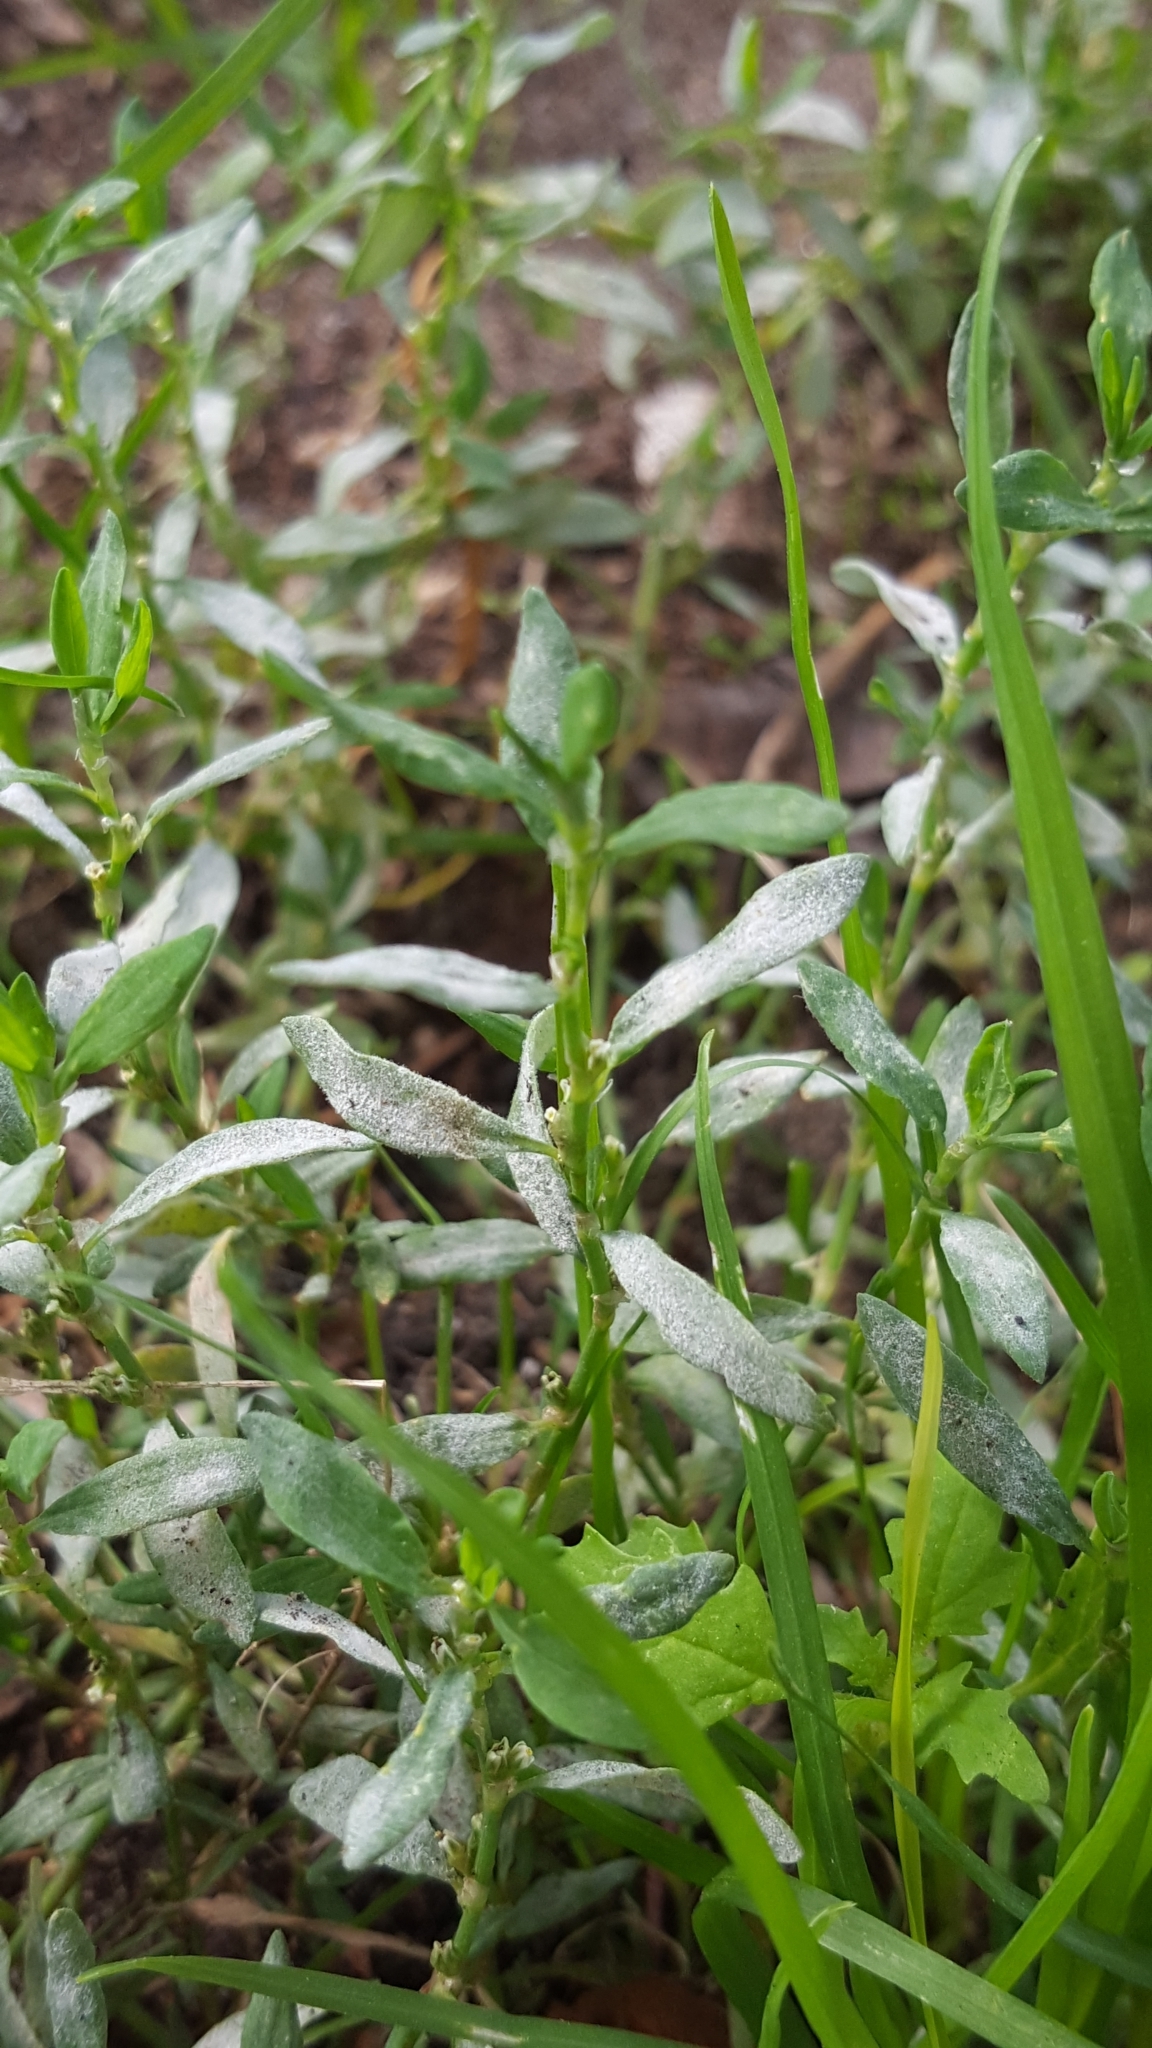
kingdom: Fungi
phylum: Ascomycota
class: Leotiomycetes
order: Helotiales
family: Erysiphaceae
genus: Erysiphe
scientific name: Erysiphe polygoni
